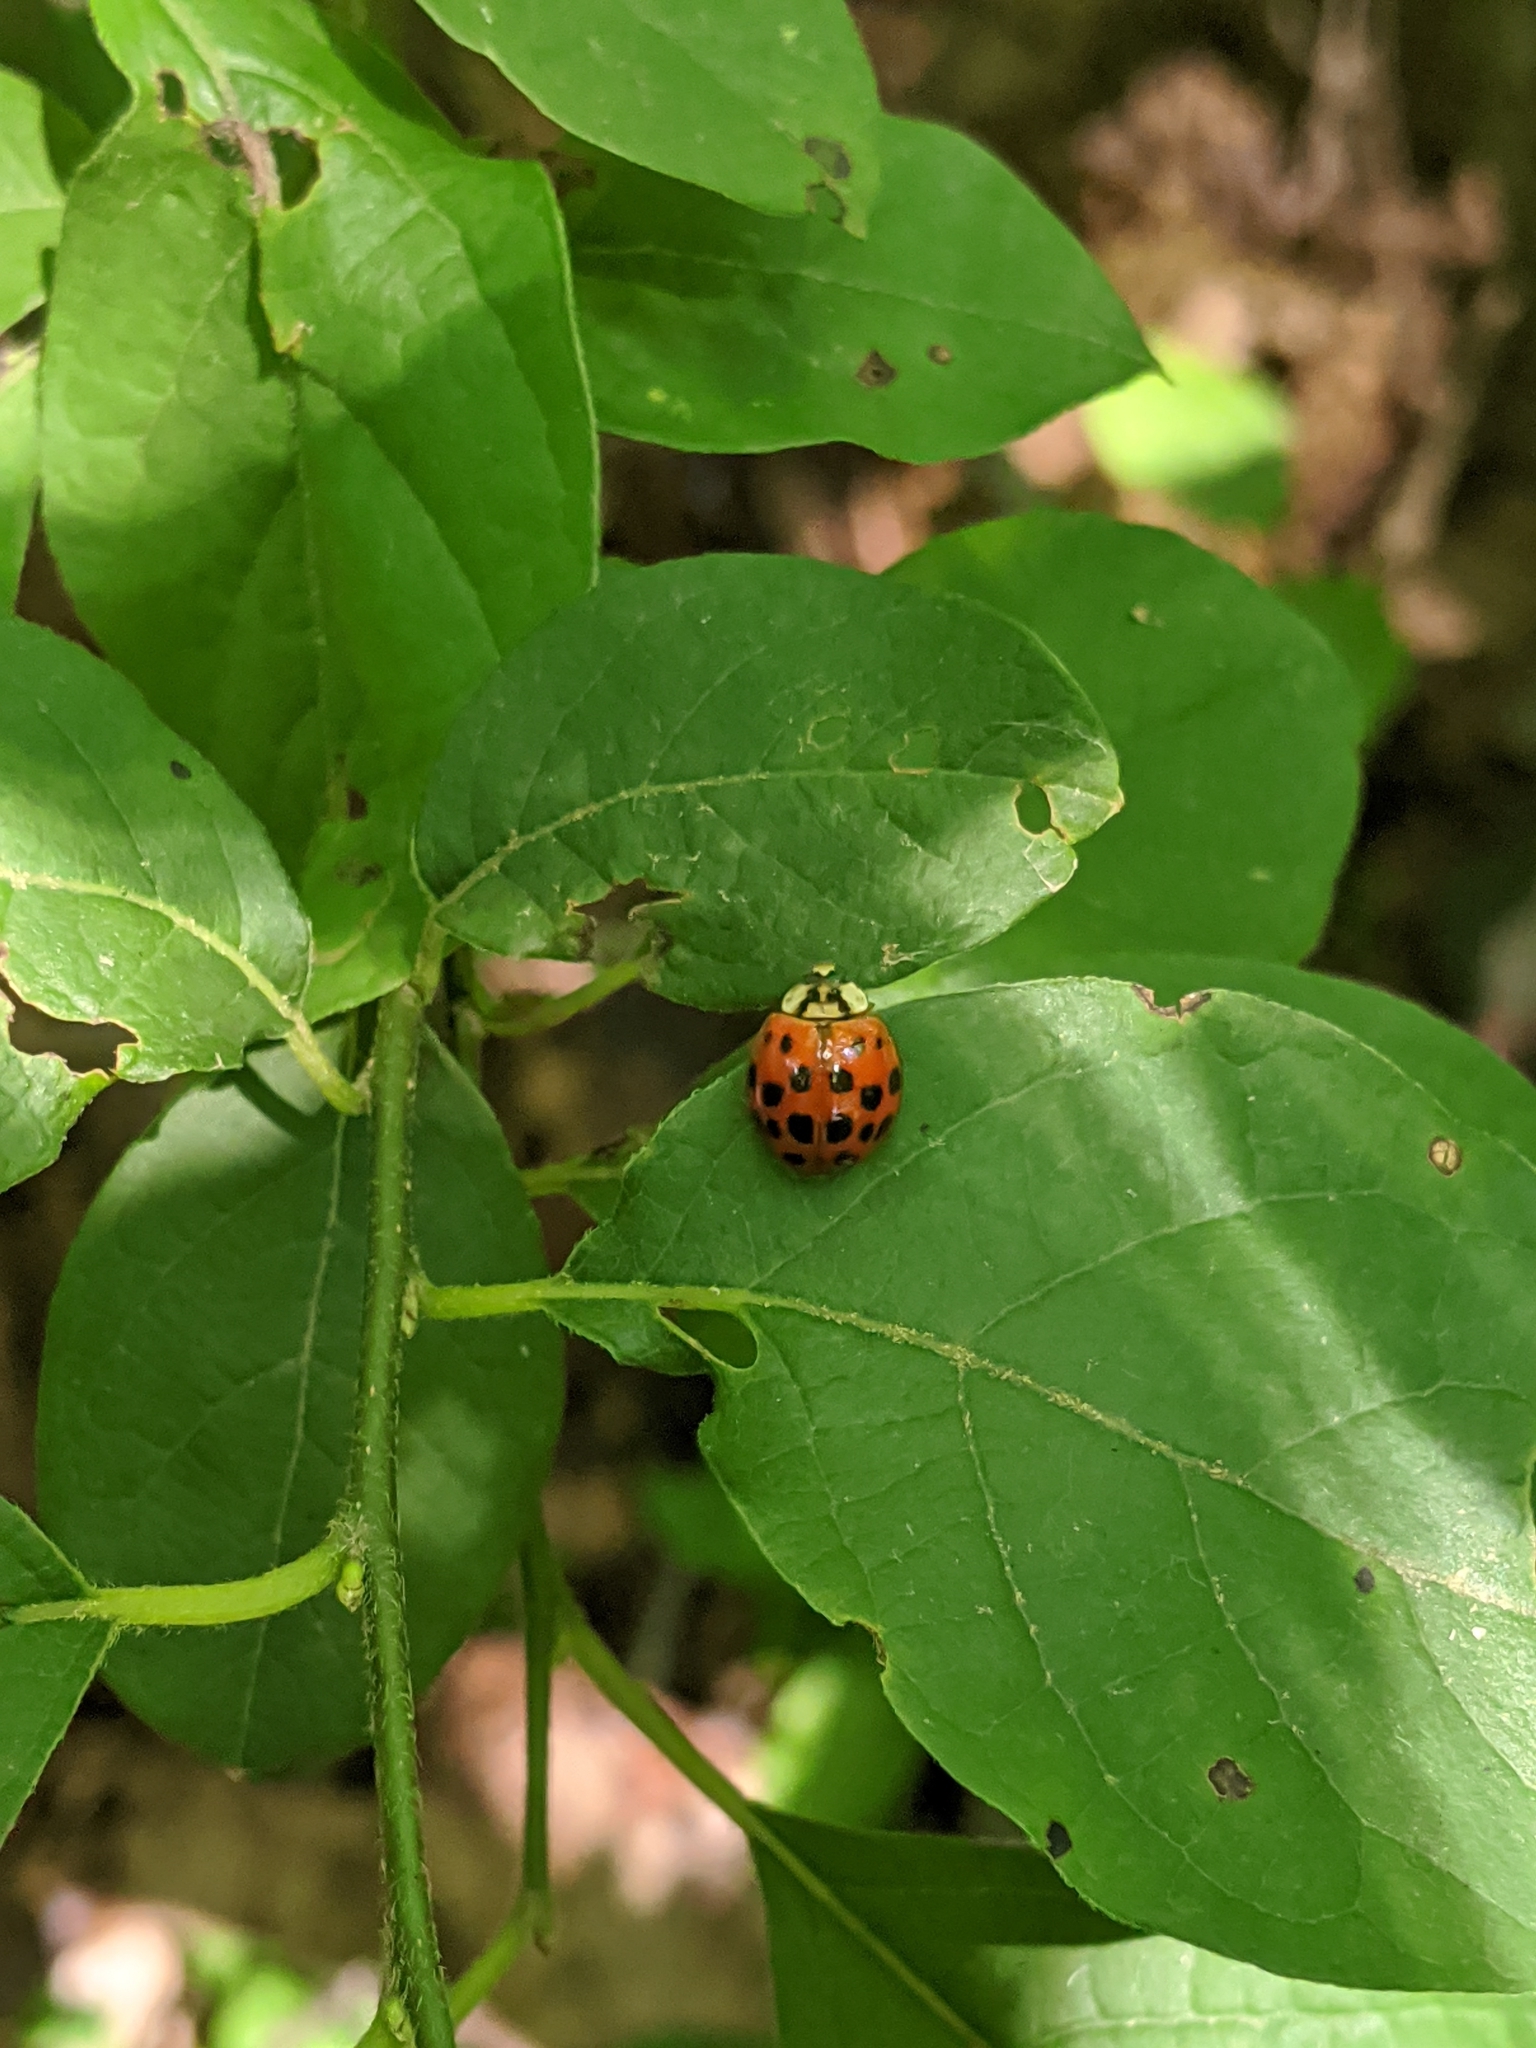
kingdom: Animalia
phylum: Arthropoda
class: Insecta
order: Coleoptera
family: Coccinellidae
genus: Harmonia
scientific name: Harmonia axyridis
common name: Harlequin ladybird
